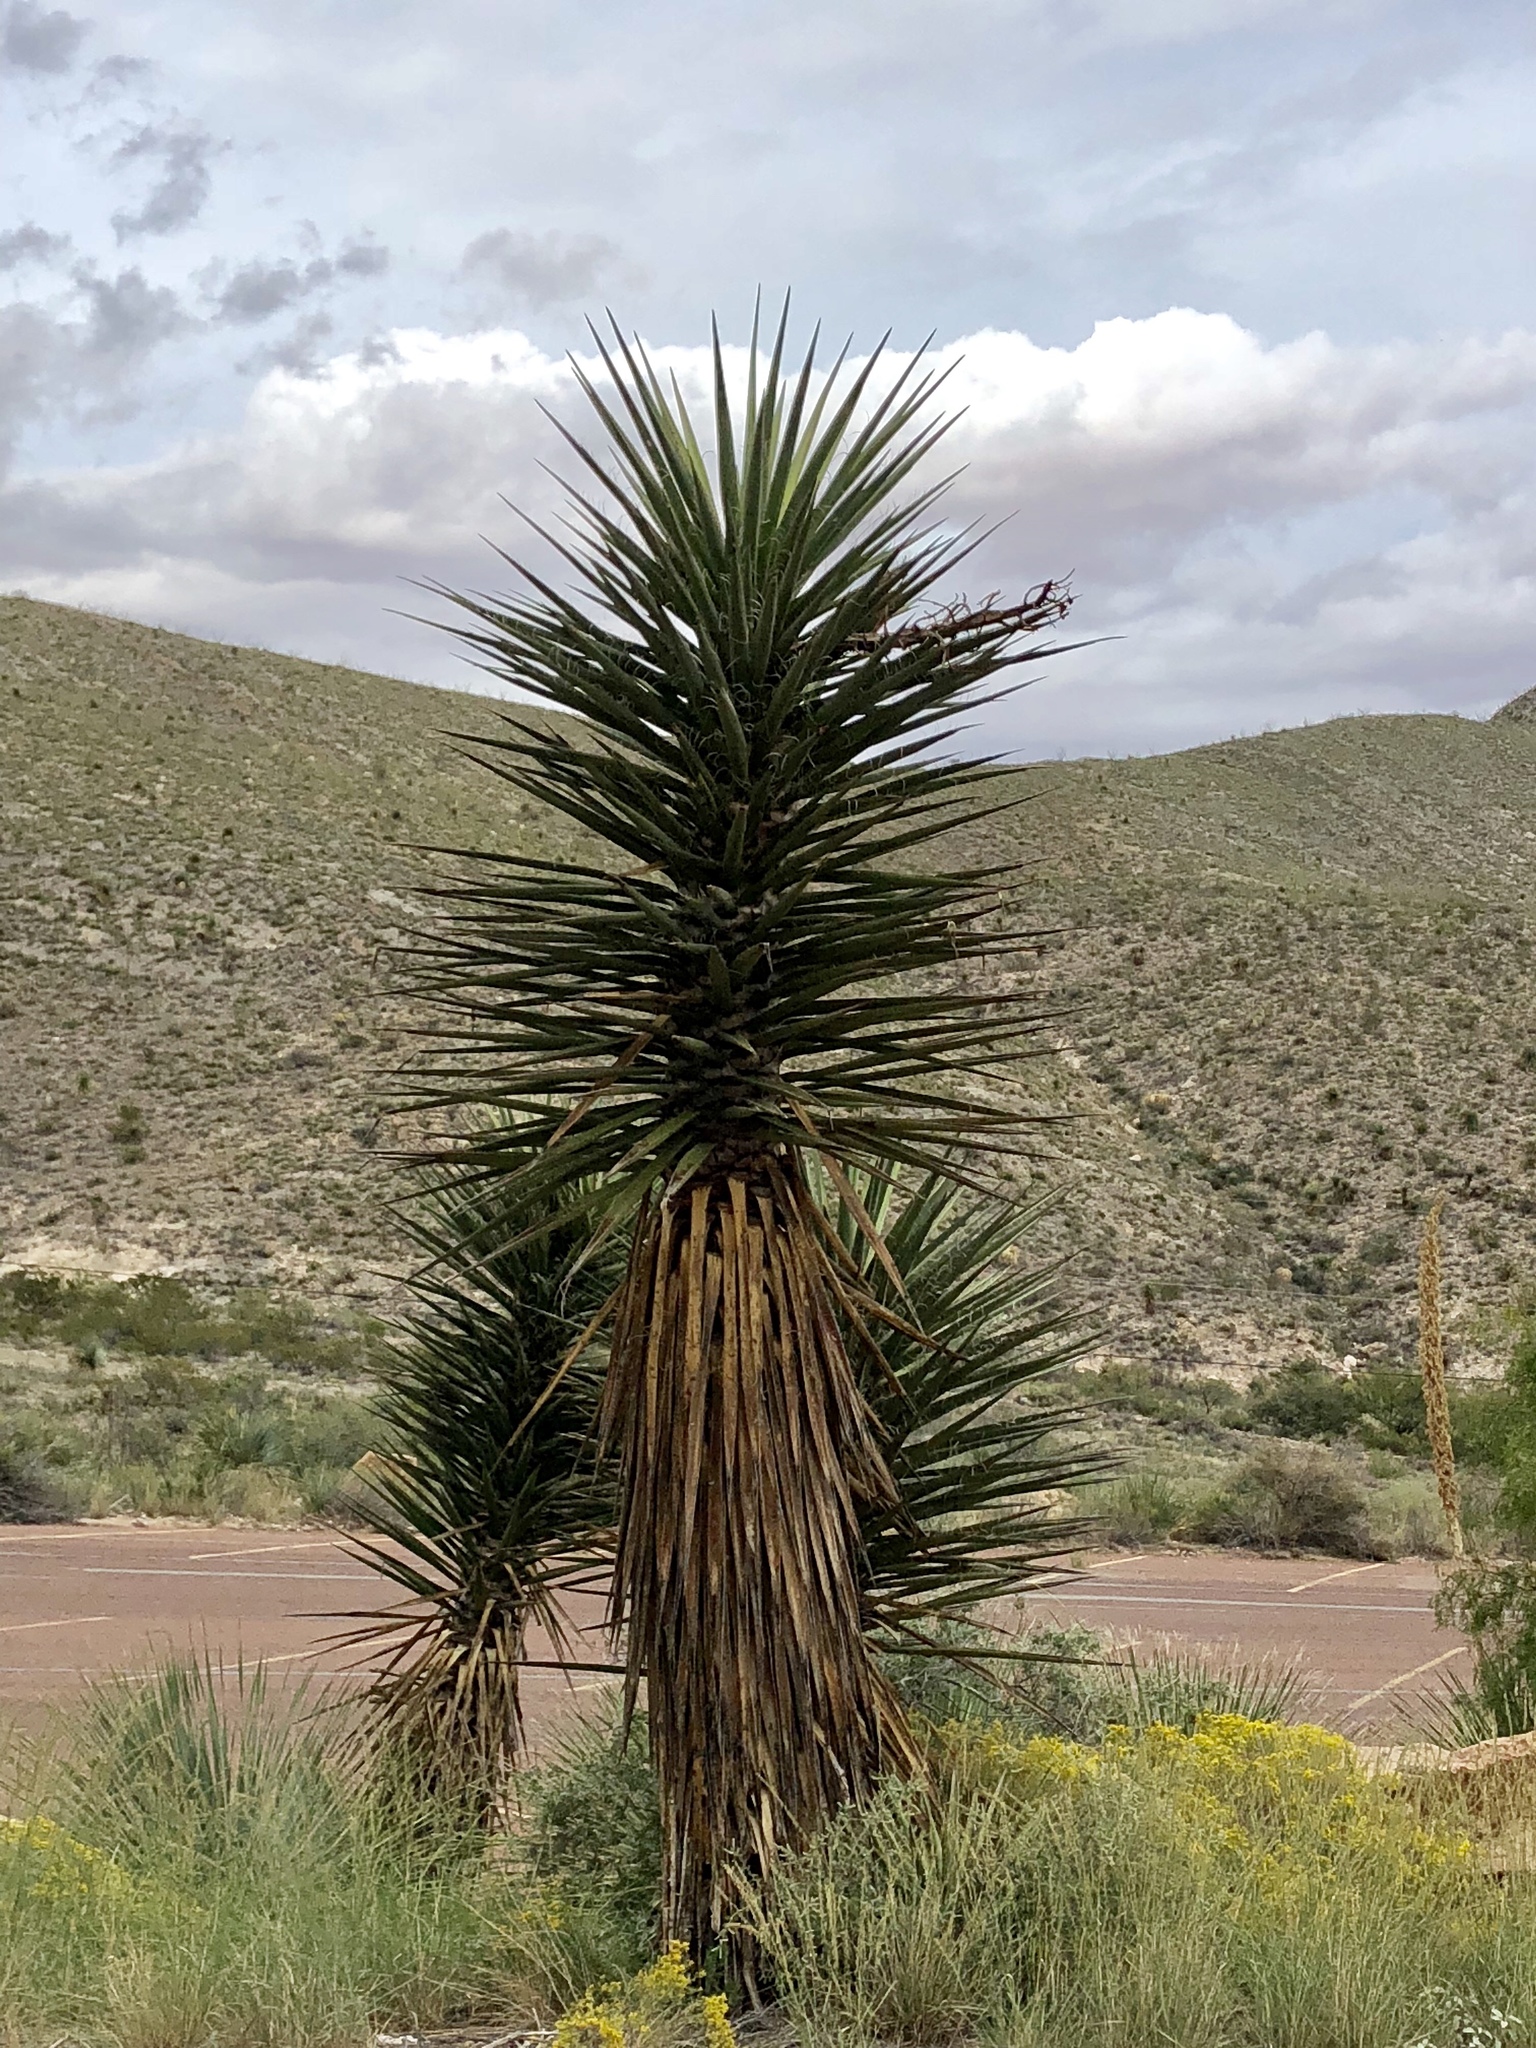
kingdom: Plantae
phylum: Tracheophyta
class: Liliopsida
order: Asparagales
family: Asparagaceae
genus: Yucca
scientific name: Yucca treculiana
